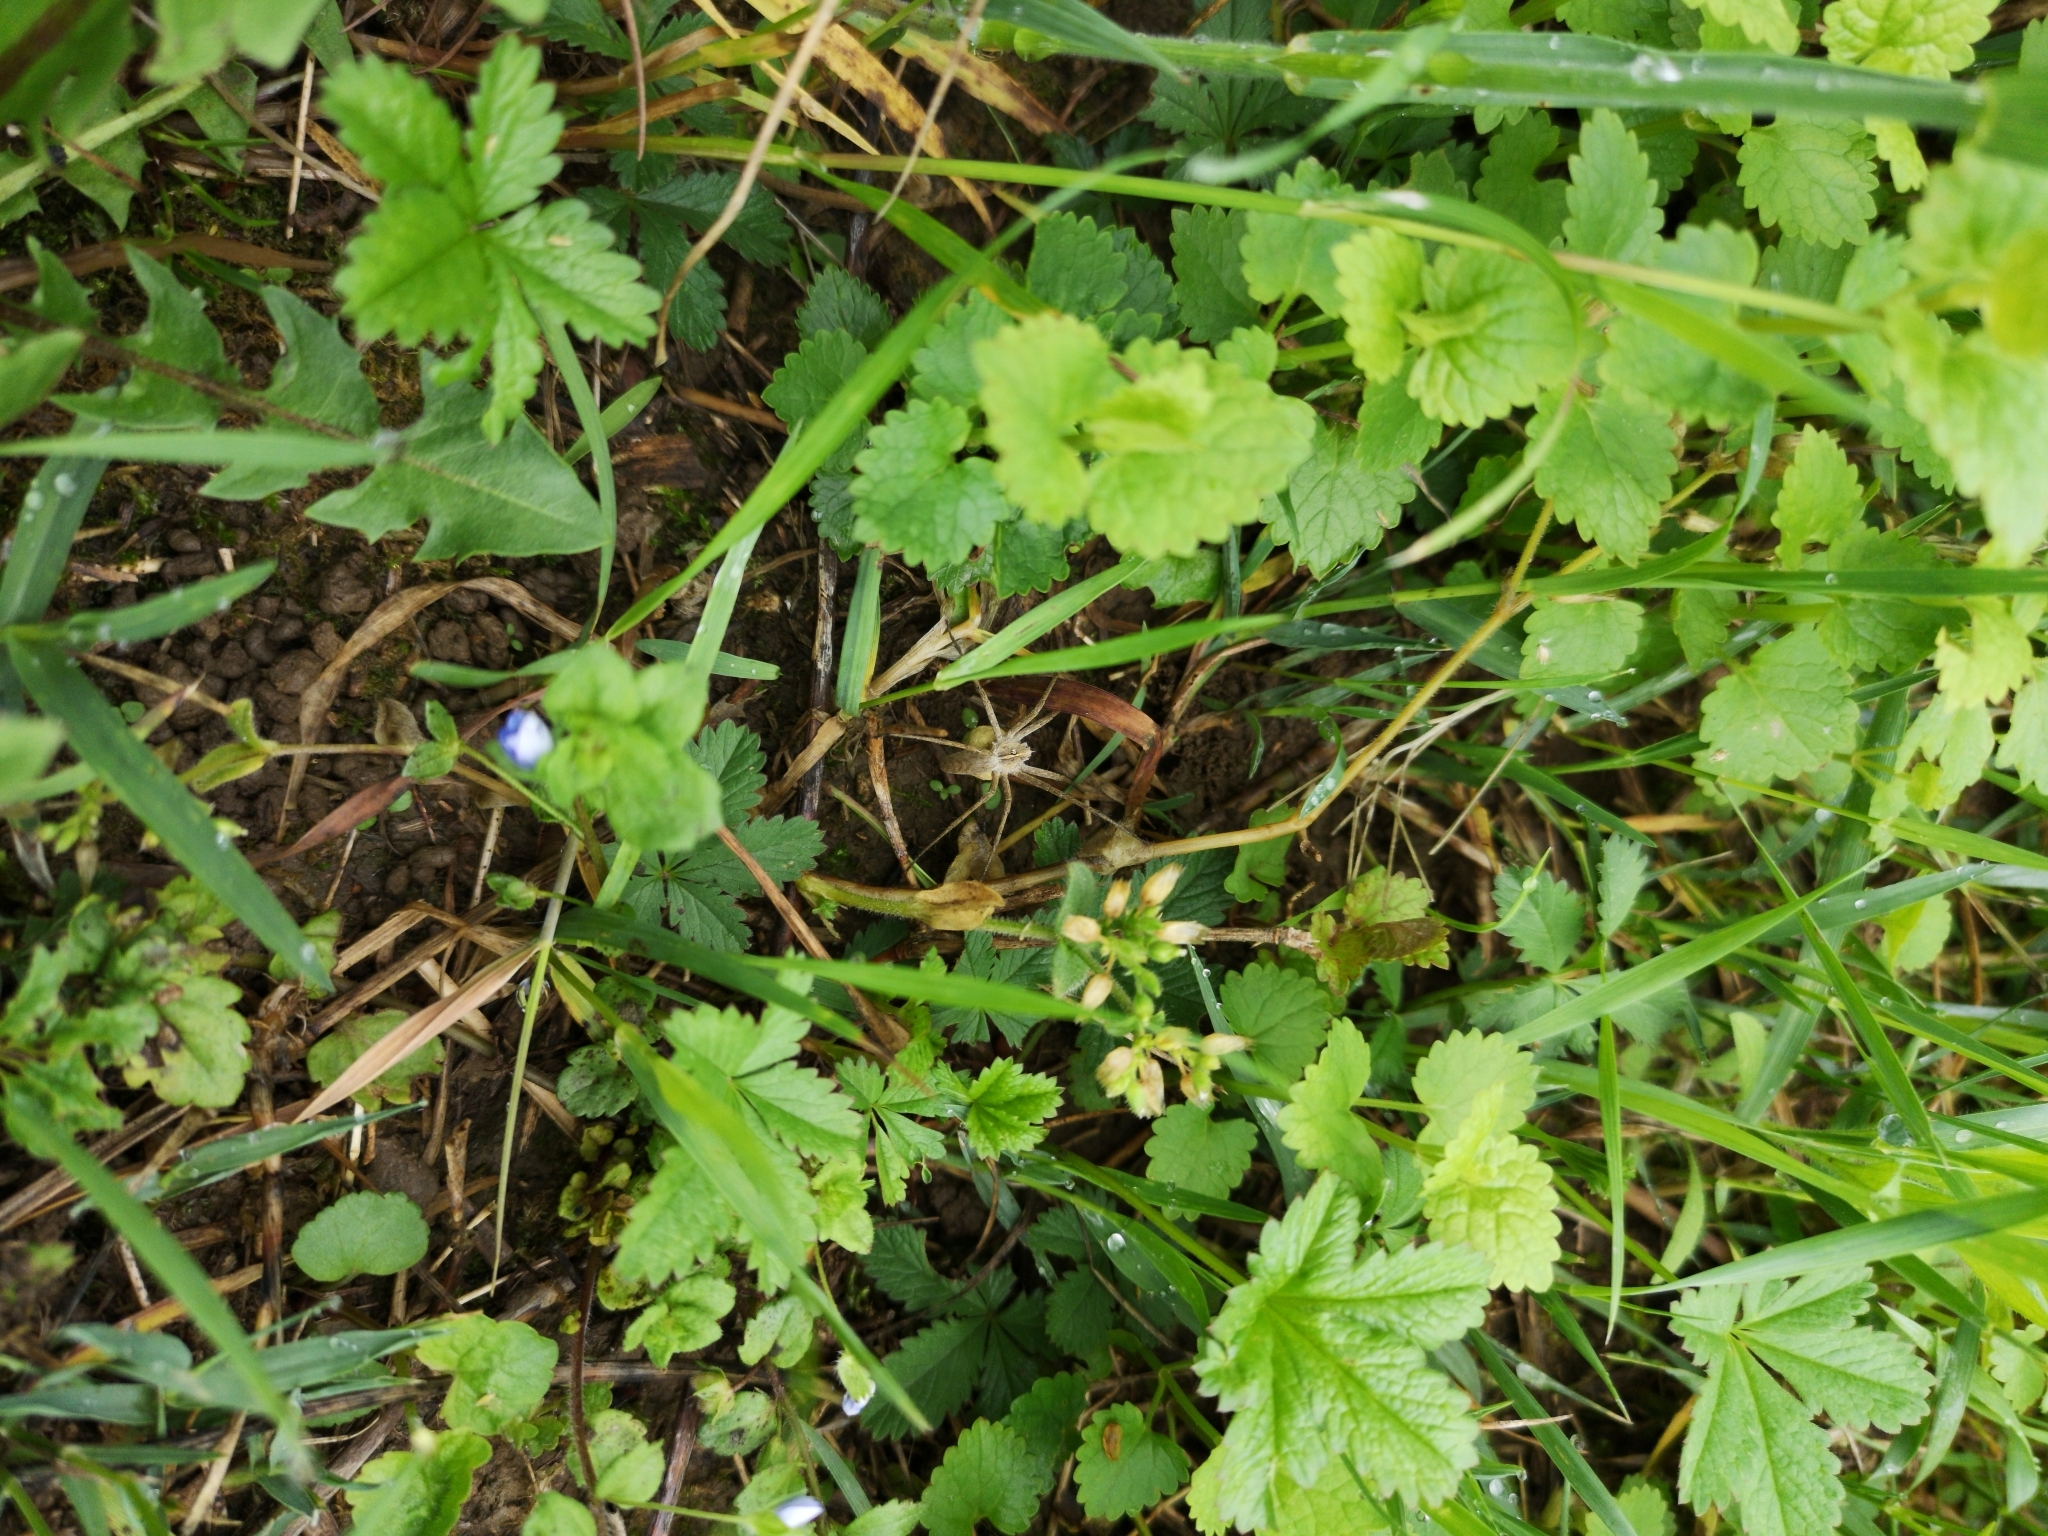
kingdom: Animalia
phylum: Arthropoda
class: Arachnida
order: Araneae
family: Pisauridae
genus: Pisaura
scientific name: Pisaura mirabilis
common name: Tent spider
